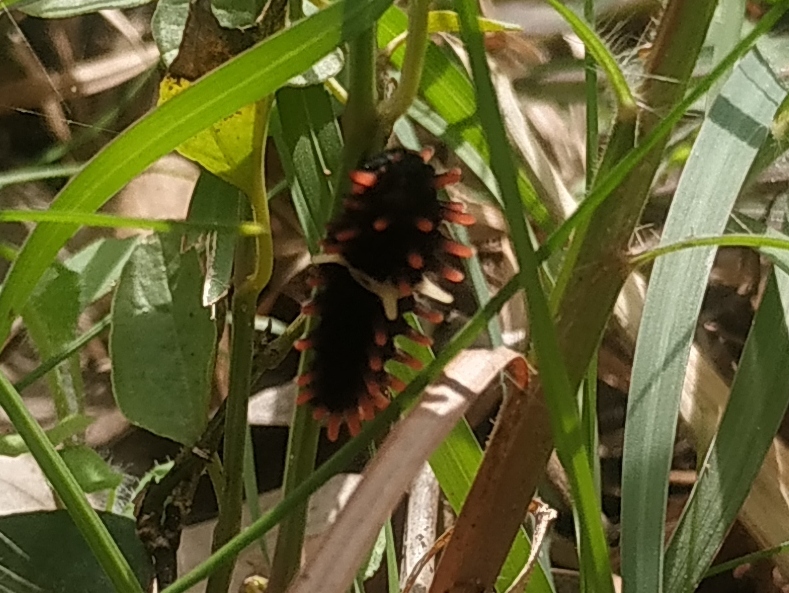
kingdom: Animalia
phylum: Arthropoda
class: Insecta
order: Lepidoptera
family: Papilionidae
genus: Pachliopta
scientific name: Pachliopta aristolochiae
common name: Common rose
